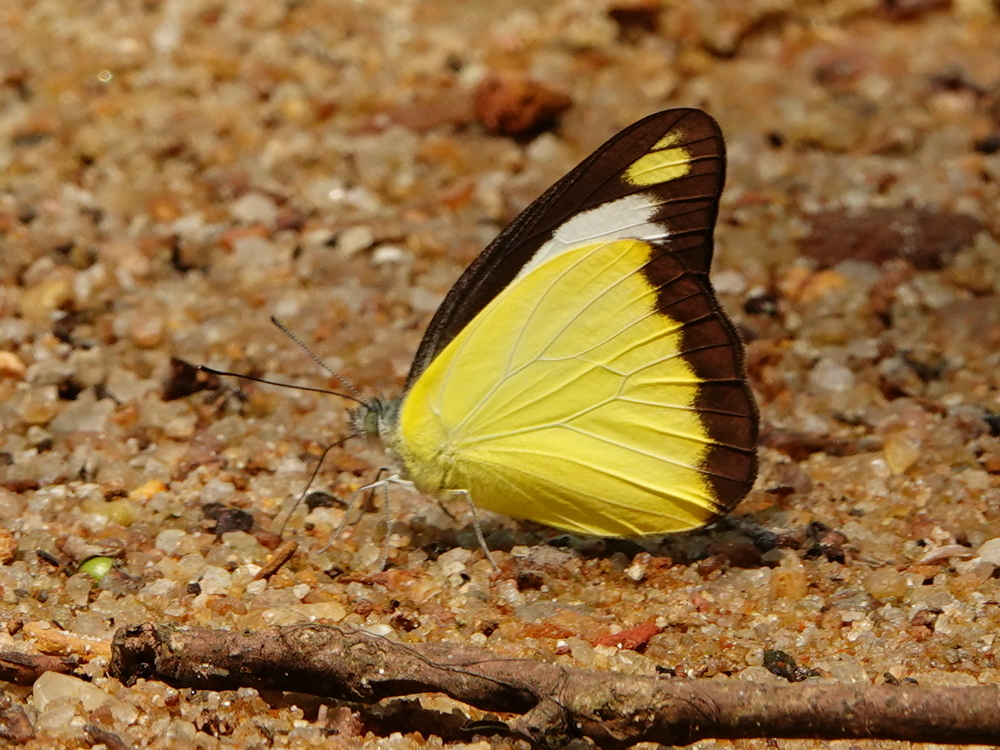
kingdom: Animalia
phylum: Arthropoda
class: Insecta
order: Lepidoptera
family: Pieridae
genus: Appias
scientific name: Appias lyncida
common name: Chocolate albatross
